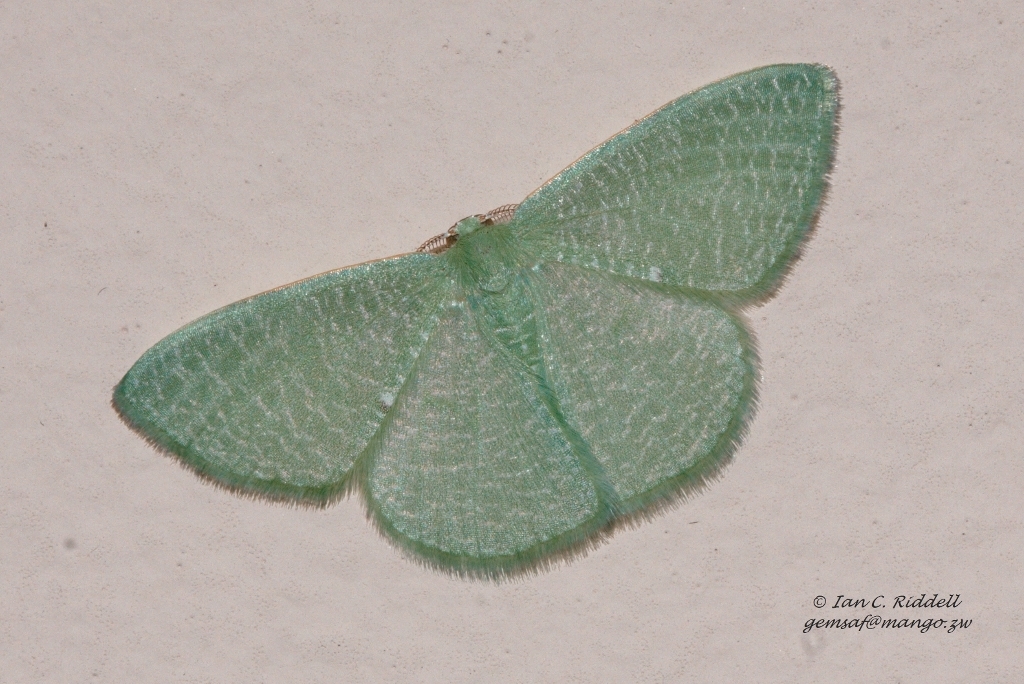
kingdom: Animalia
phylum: Arthropoda
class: Insecta
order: Lepidoptera
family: Geometridae
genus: Prasinocyma
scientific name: Prasinocyma vermicularia
